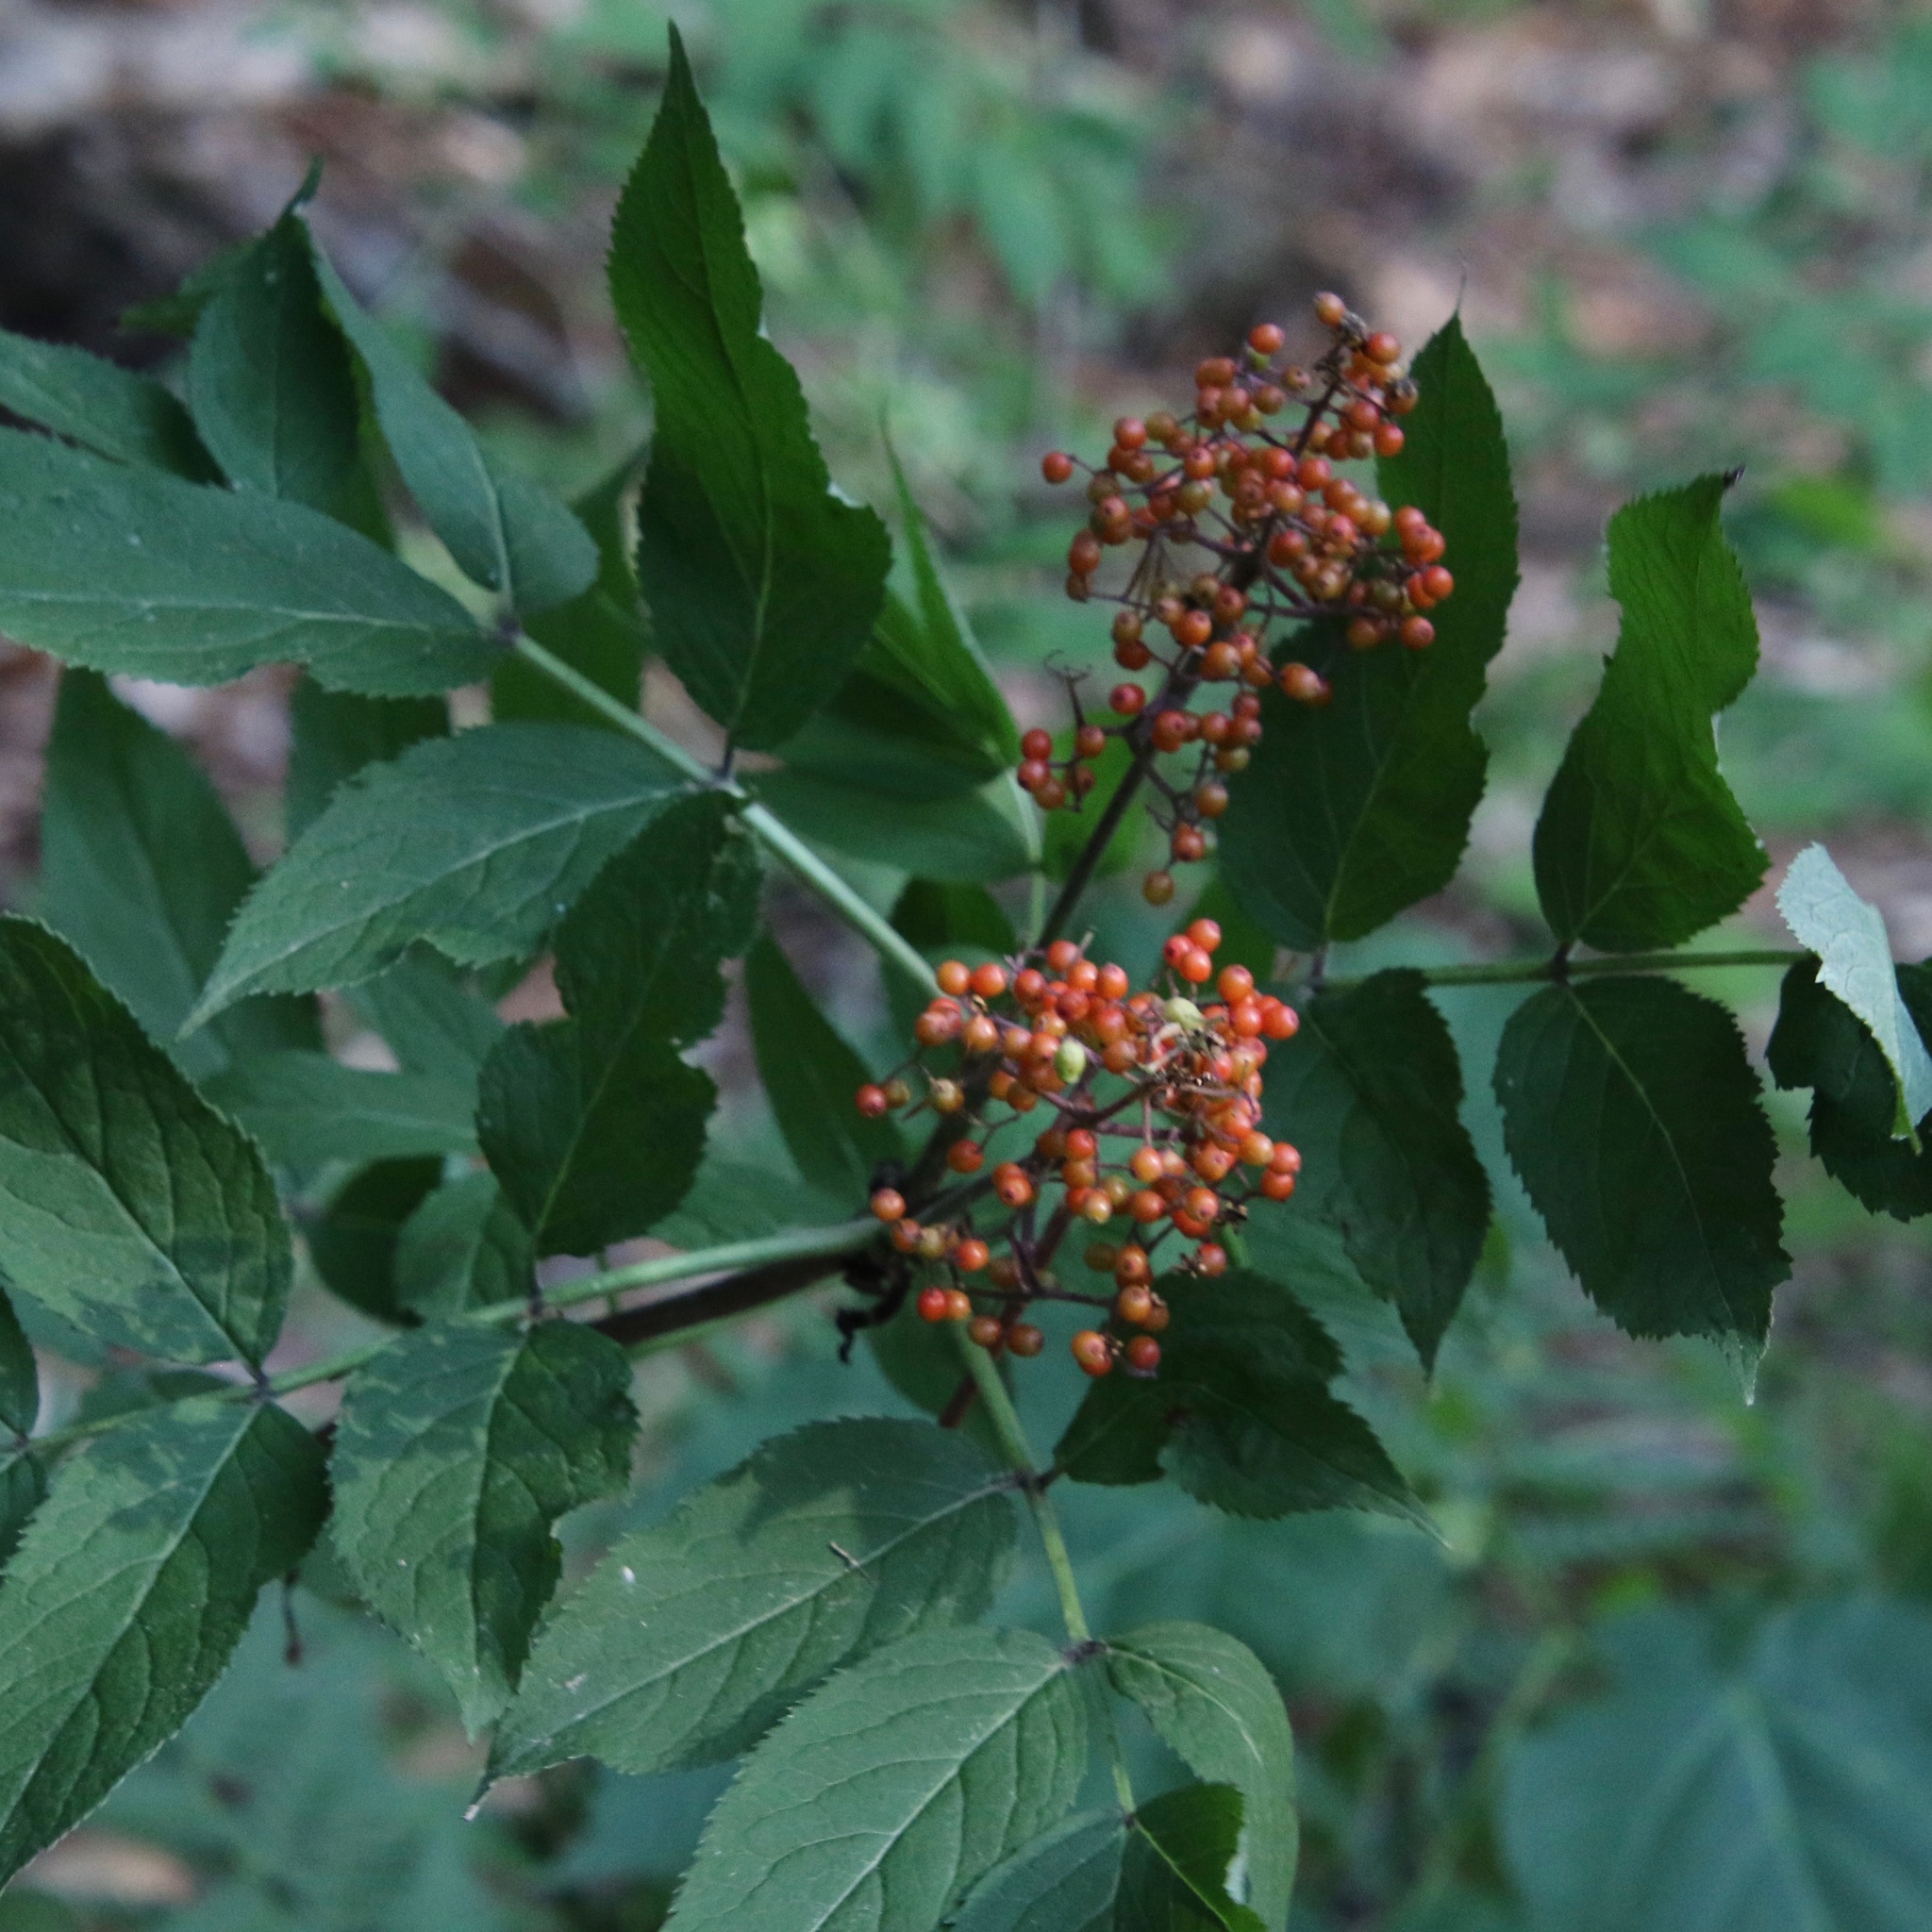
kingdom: Plantae
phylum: Tracheophyta
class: Magnoliopsida
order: Dipsacales
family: Viburnaceae
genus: Sambucus
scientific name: Sambucus racemosa
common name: Red-berried elder
